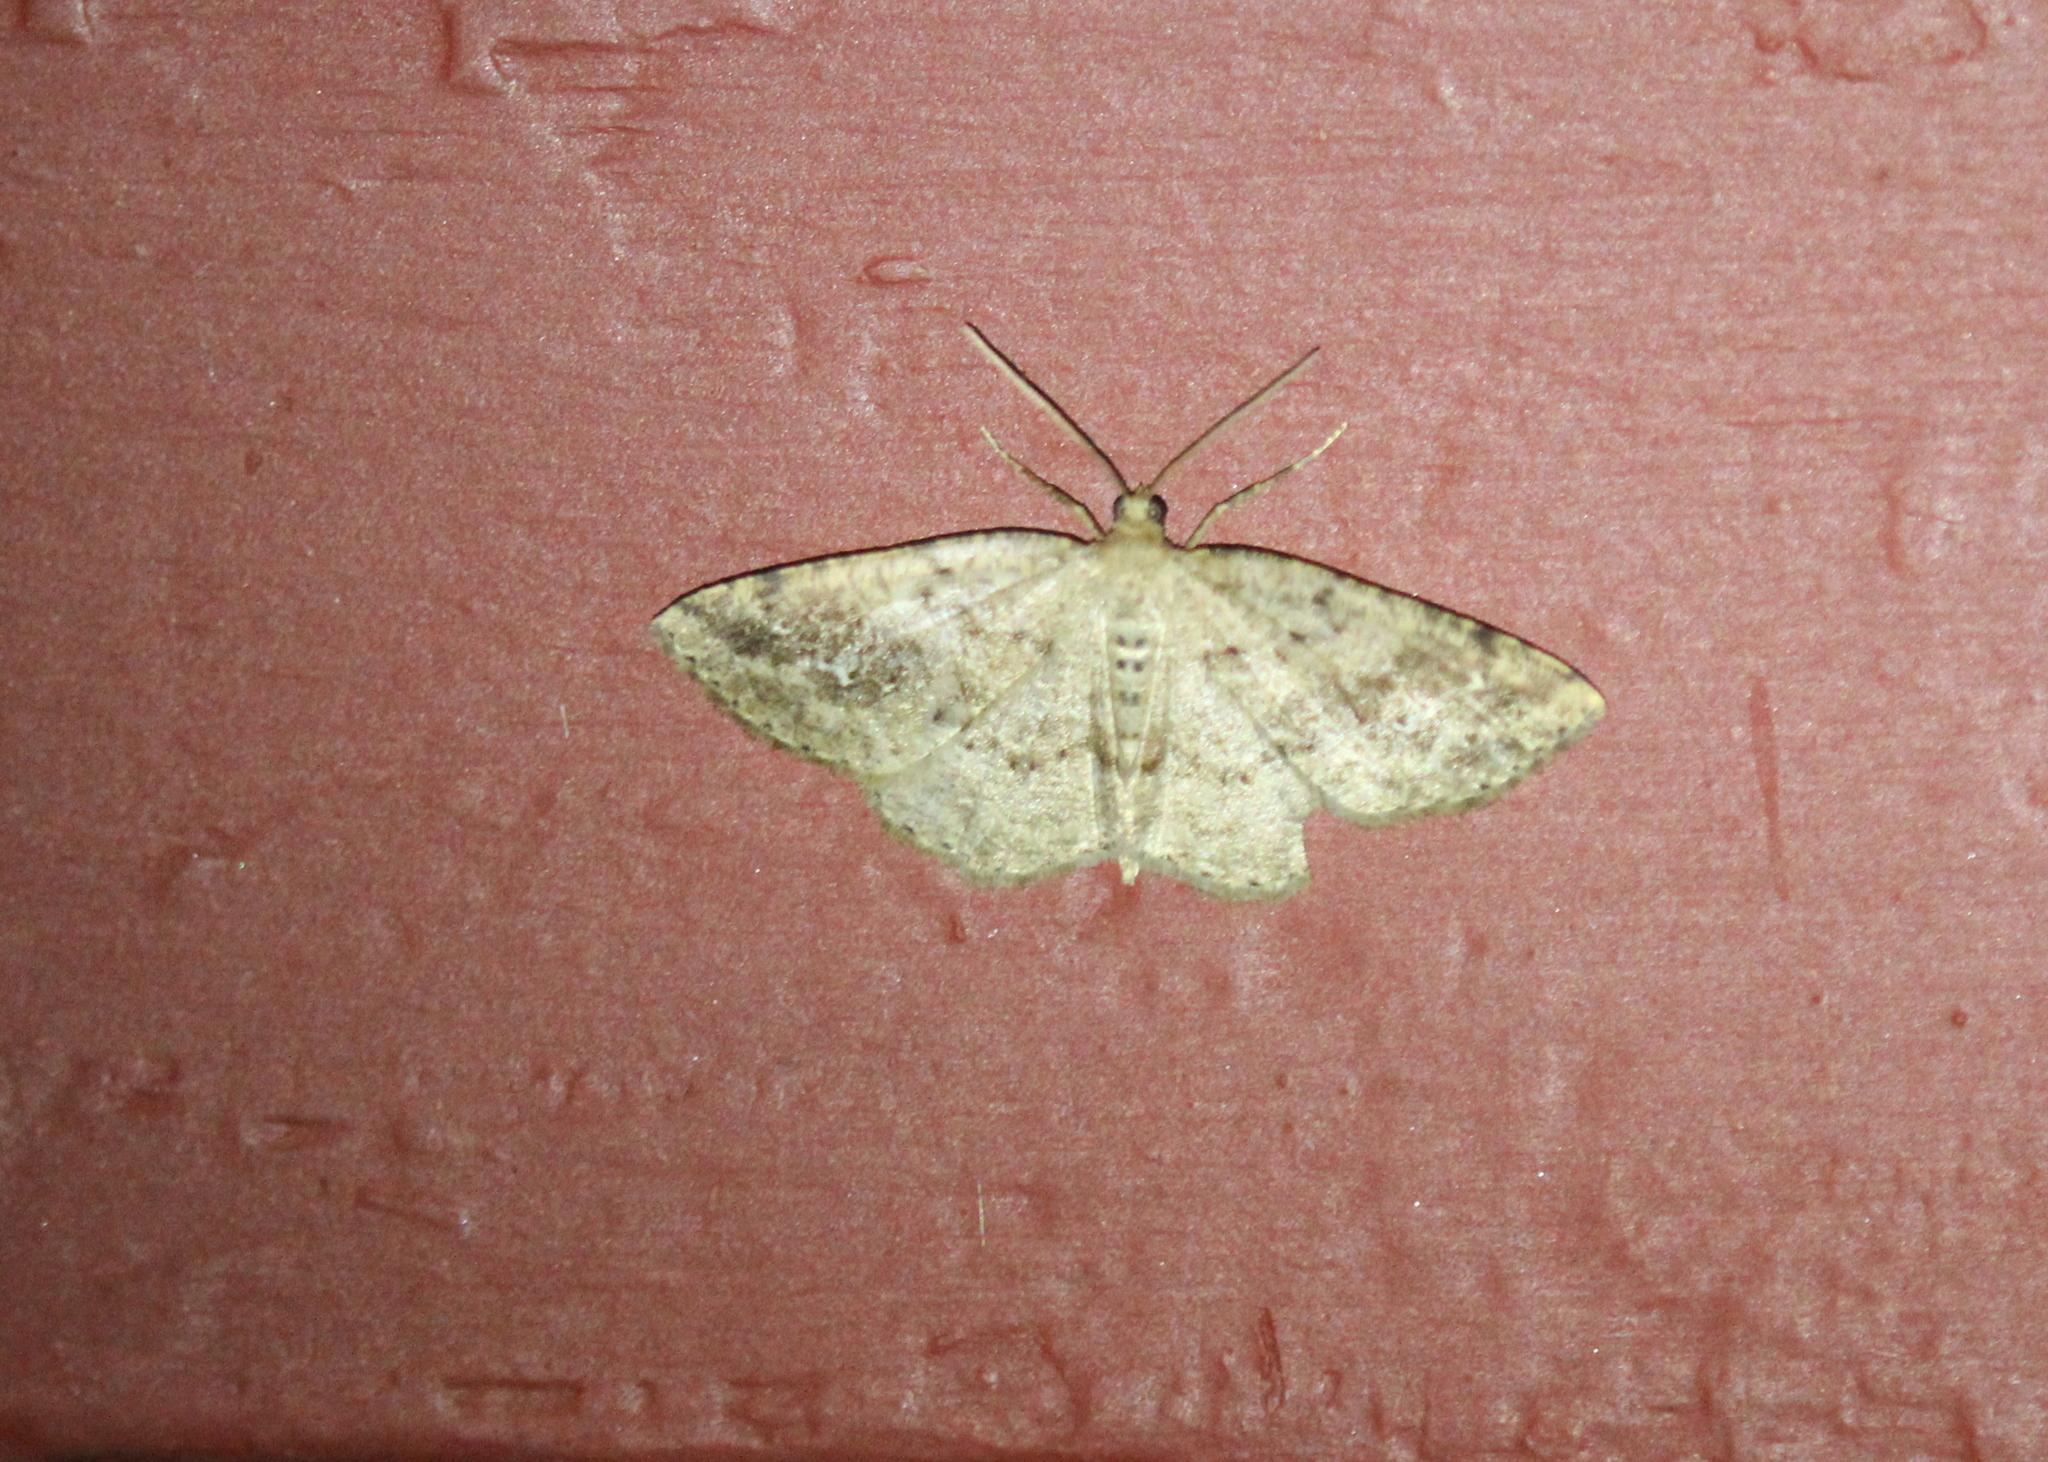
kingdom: Animalia
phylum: Arthropoda
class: Insecta
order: Lepidoptera
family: Geometridae
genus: Homochlodes
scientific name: Homochlodes fritillaria
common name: Pale homochlodes
